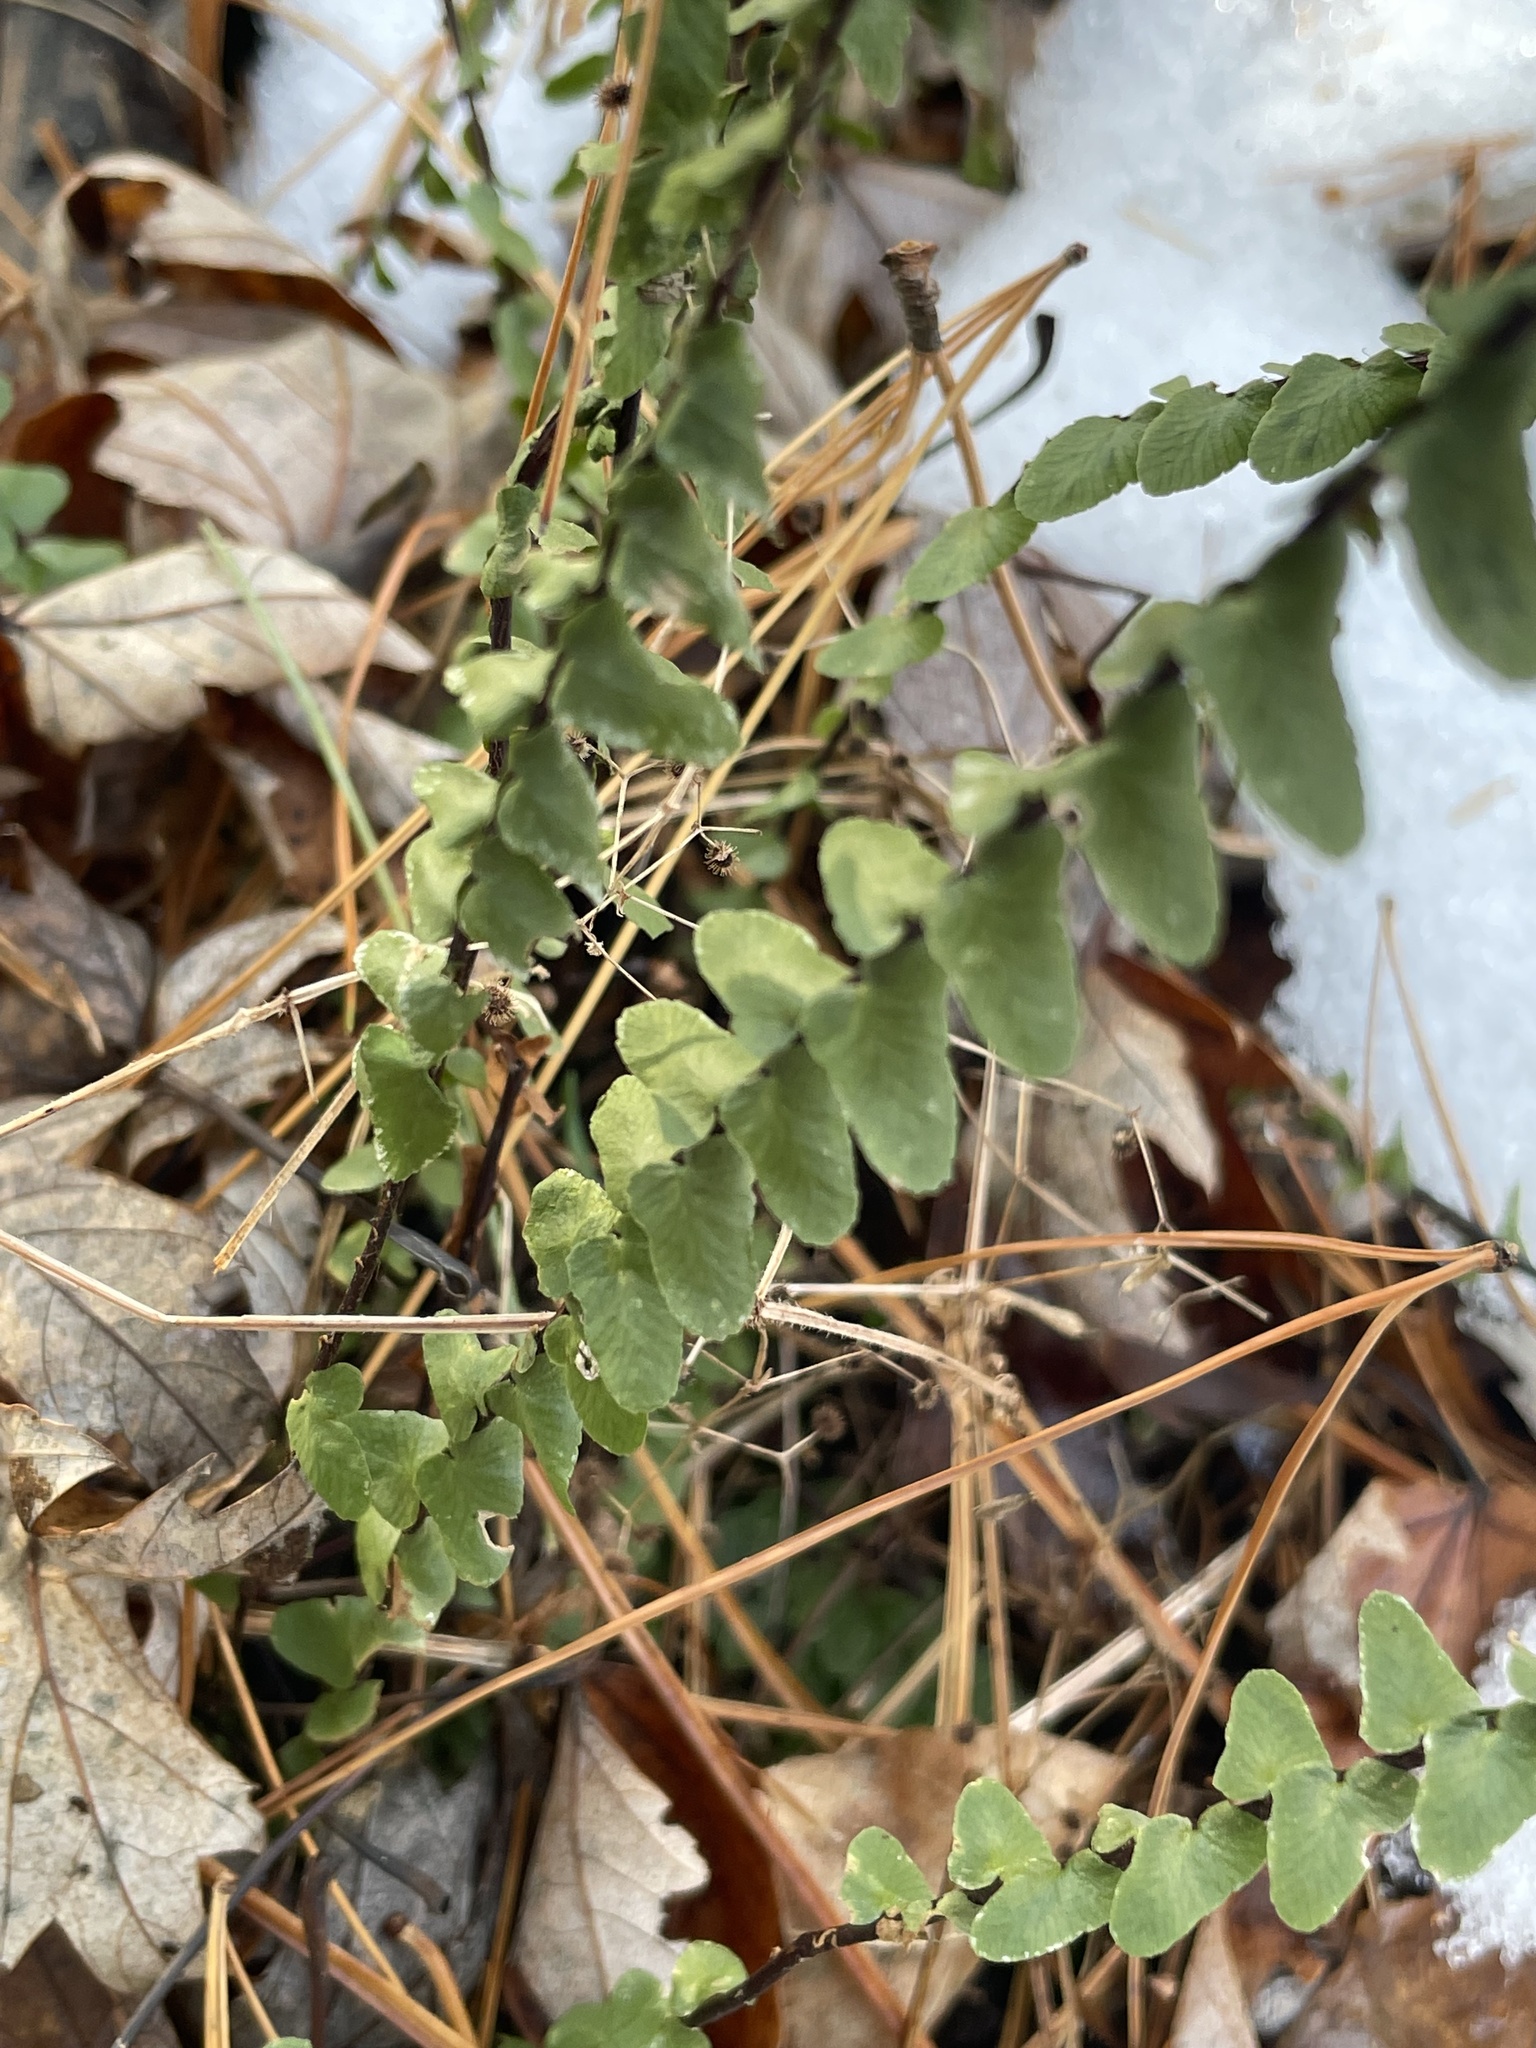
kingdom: Plantae
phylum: Tracheophyta
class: Polypodiopsida
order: Polypodiales
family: Aspleniaceae
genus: Asplenium
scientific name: Asplenium platyneuron
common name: Ebony spleenwort
